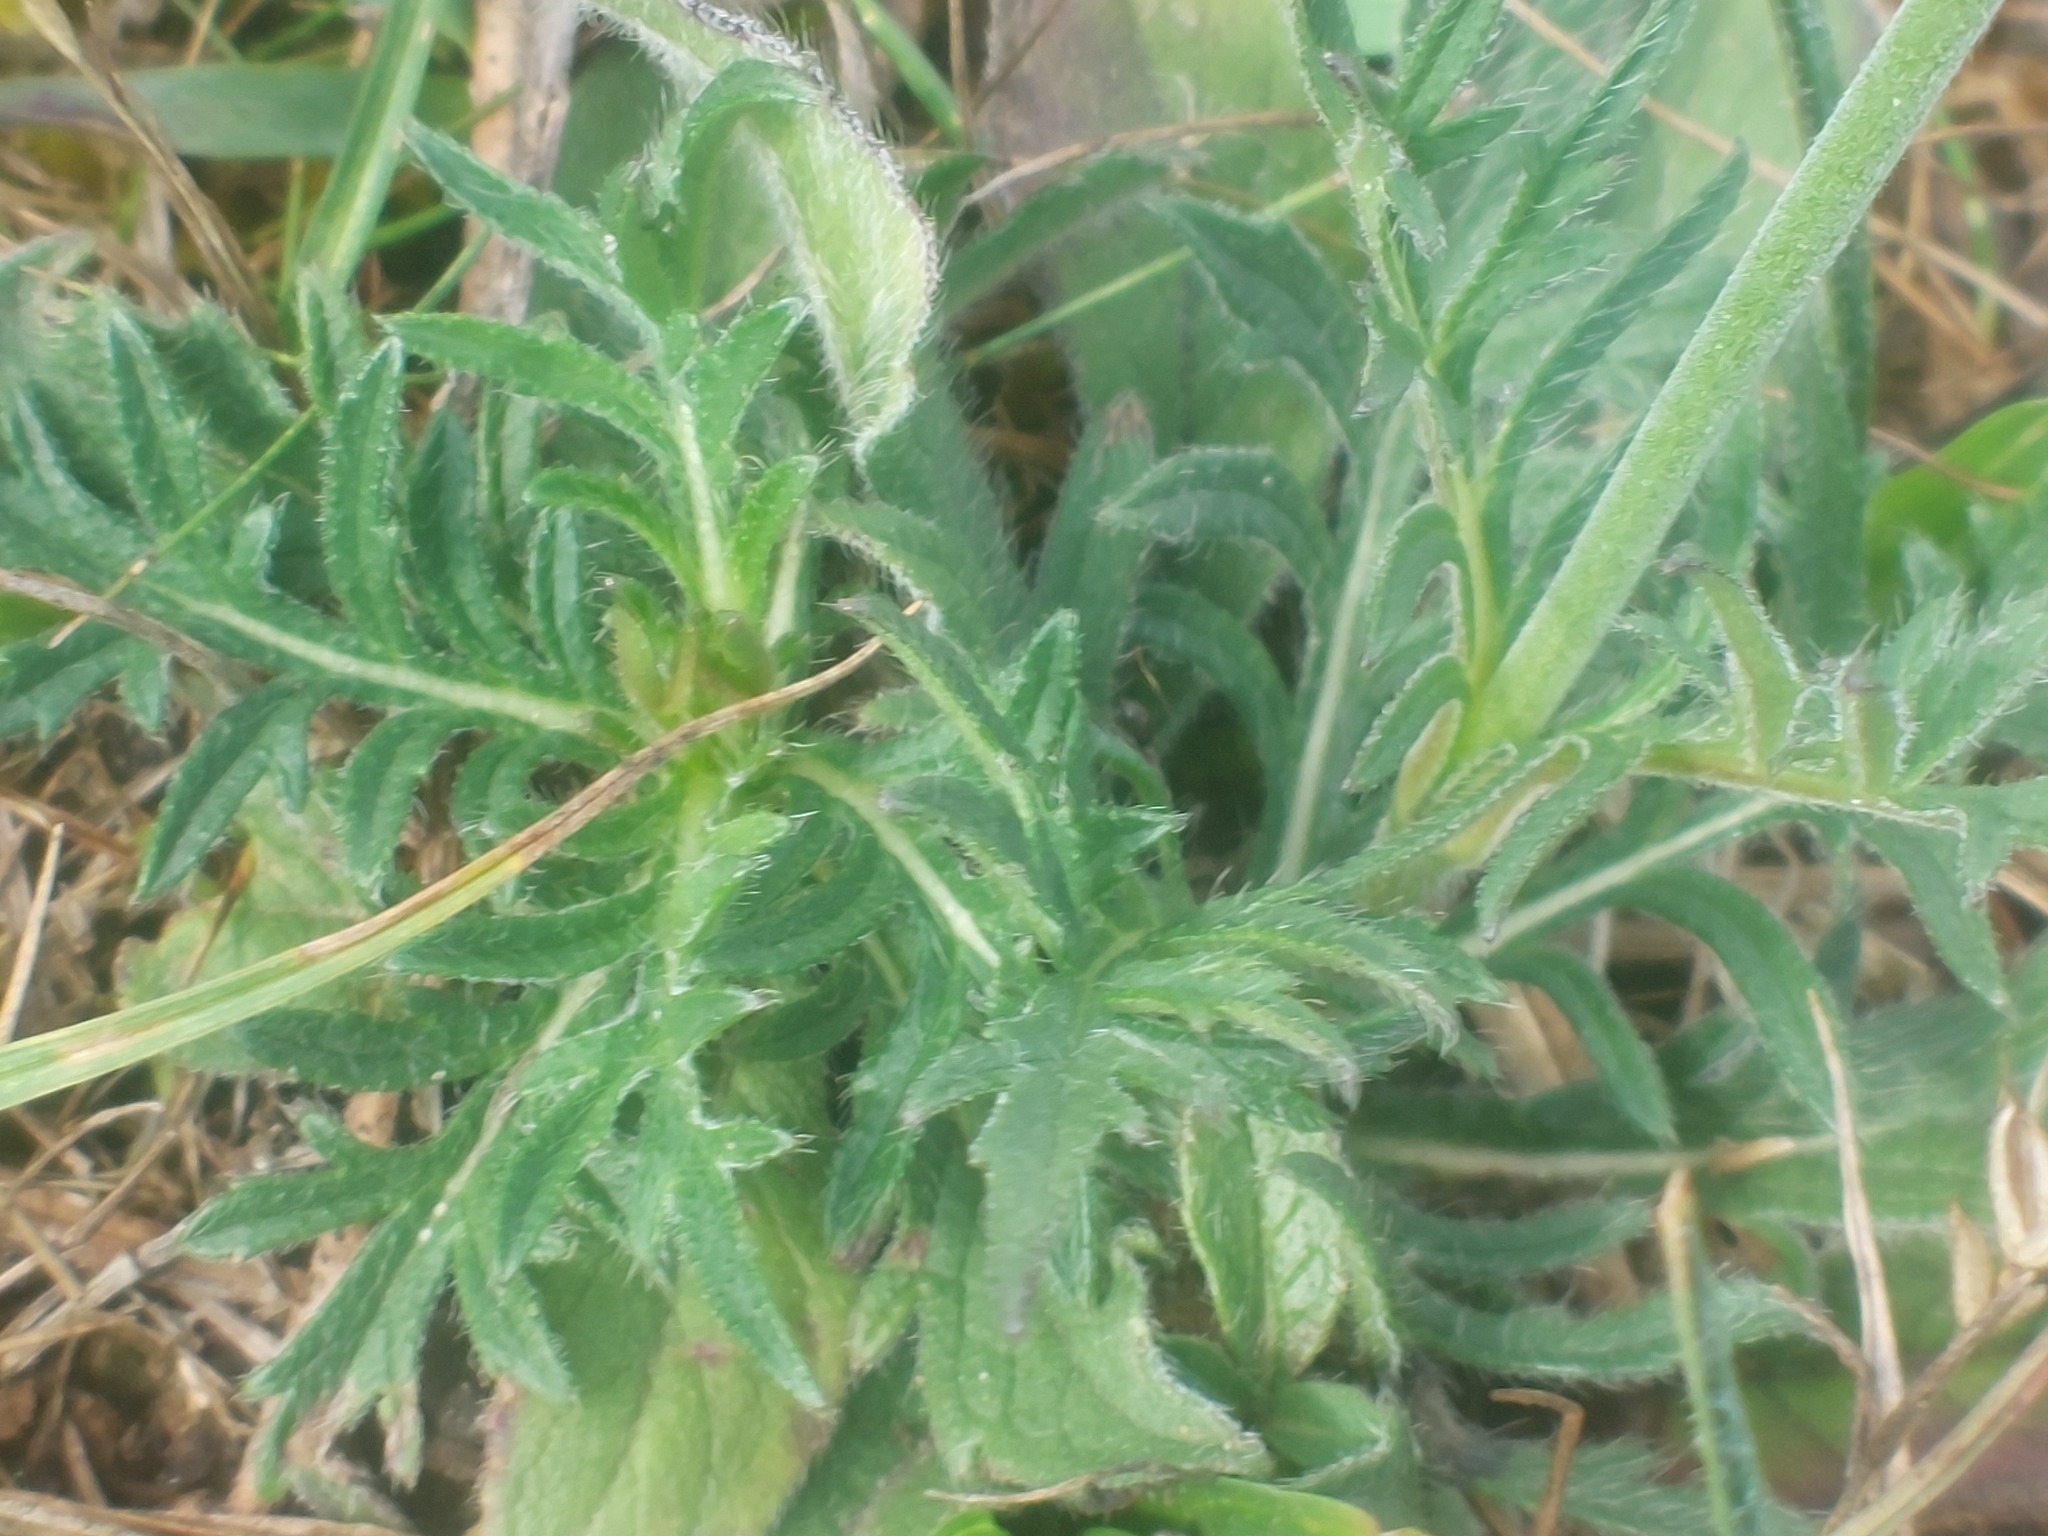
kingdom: Plantae
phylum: Tracheophyta
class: Magnoliopsida
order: Dipsacales
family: Caprifoliaceae
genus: Knautia
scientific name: Knautia arvensis
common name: Field scabiosa
